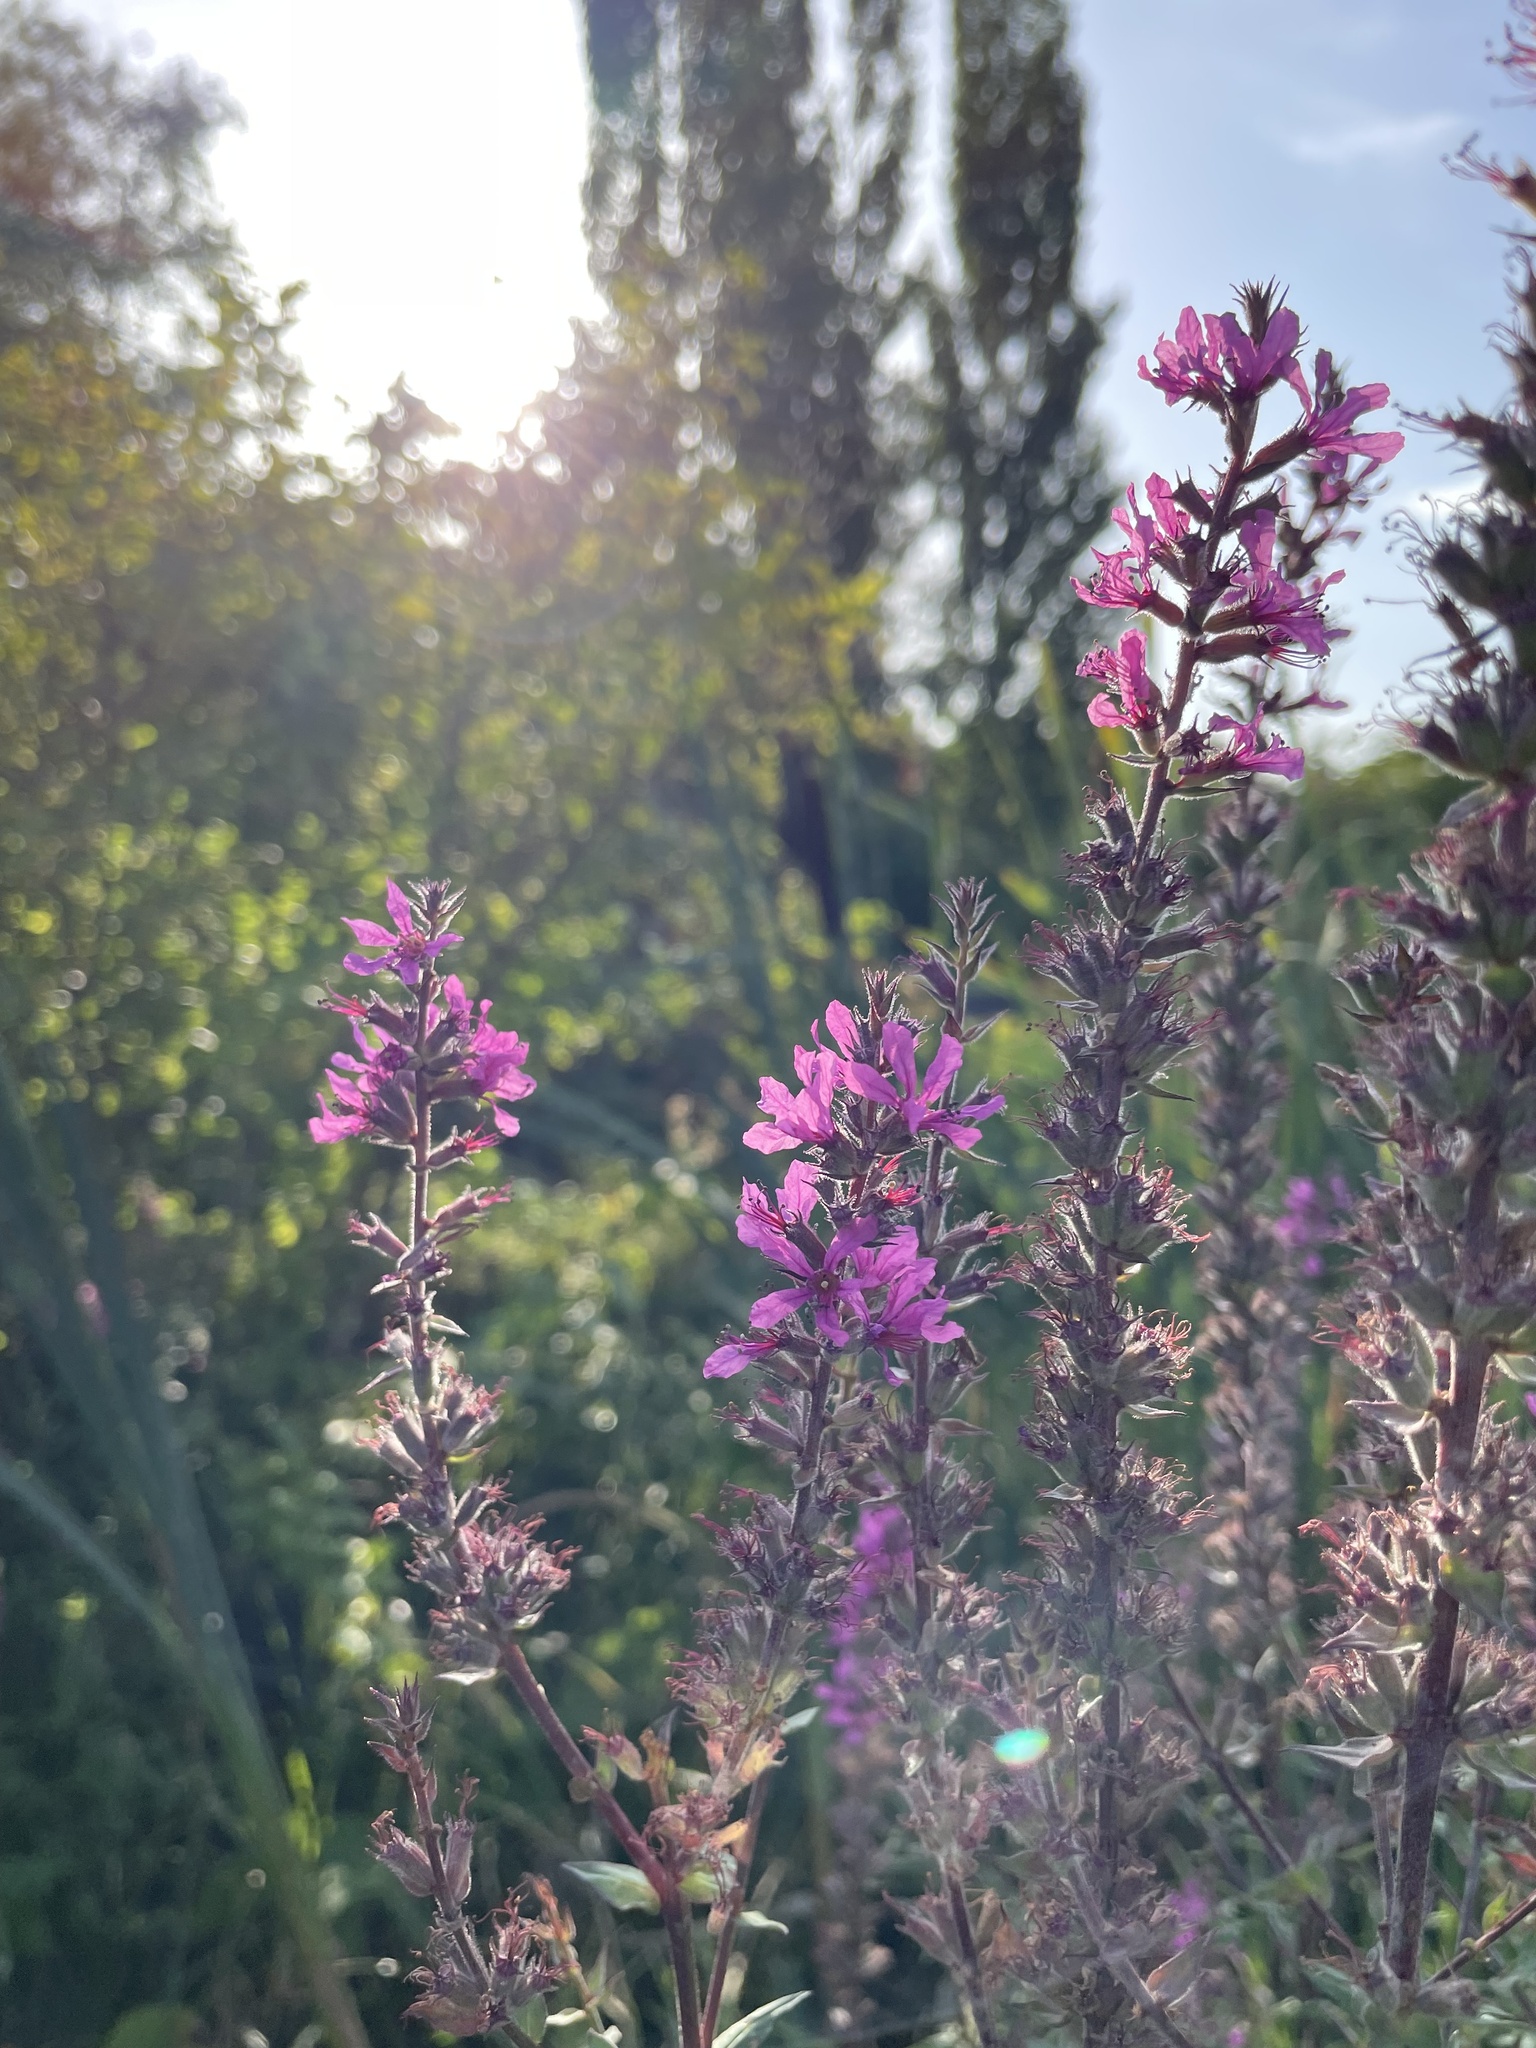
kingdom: Plantae
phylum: Tracheophyta
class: Magnoliopsida
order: Myrtales
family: Lythraceae
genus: Lythrum
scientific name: Lythrum salicaria
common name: Purple loosestrife
